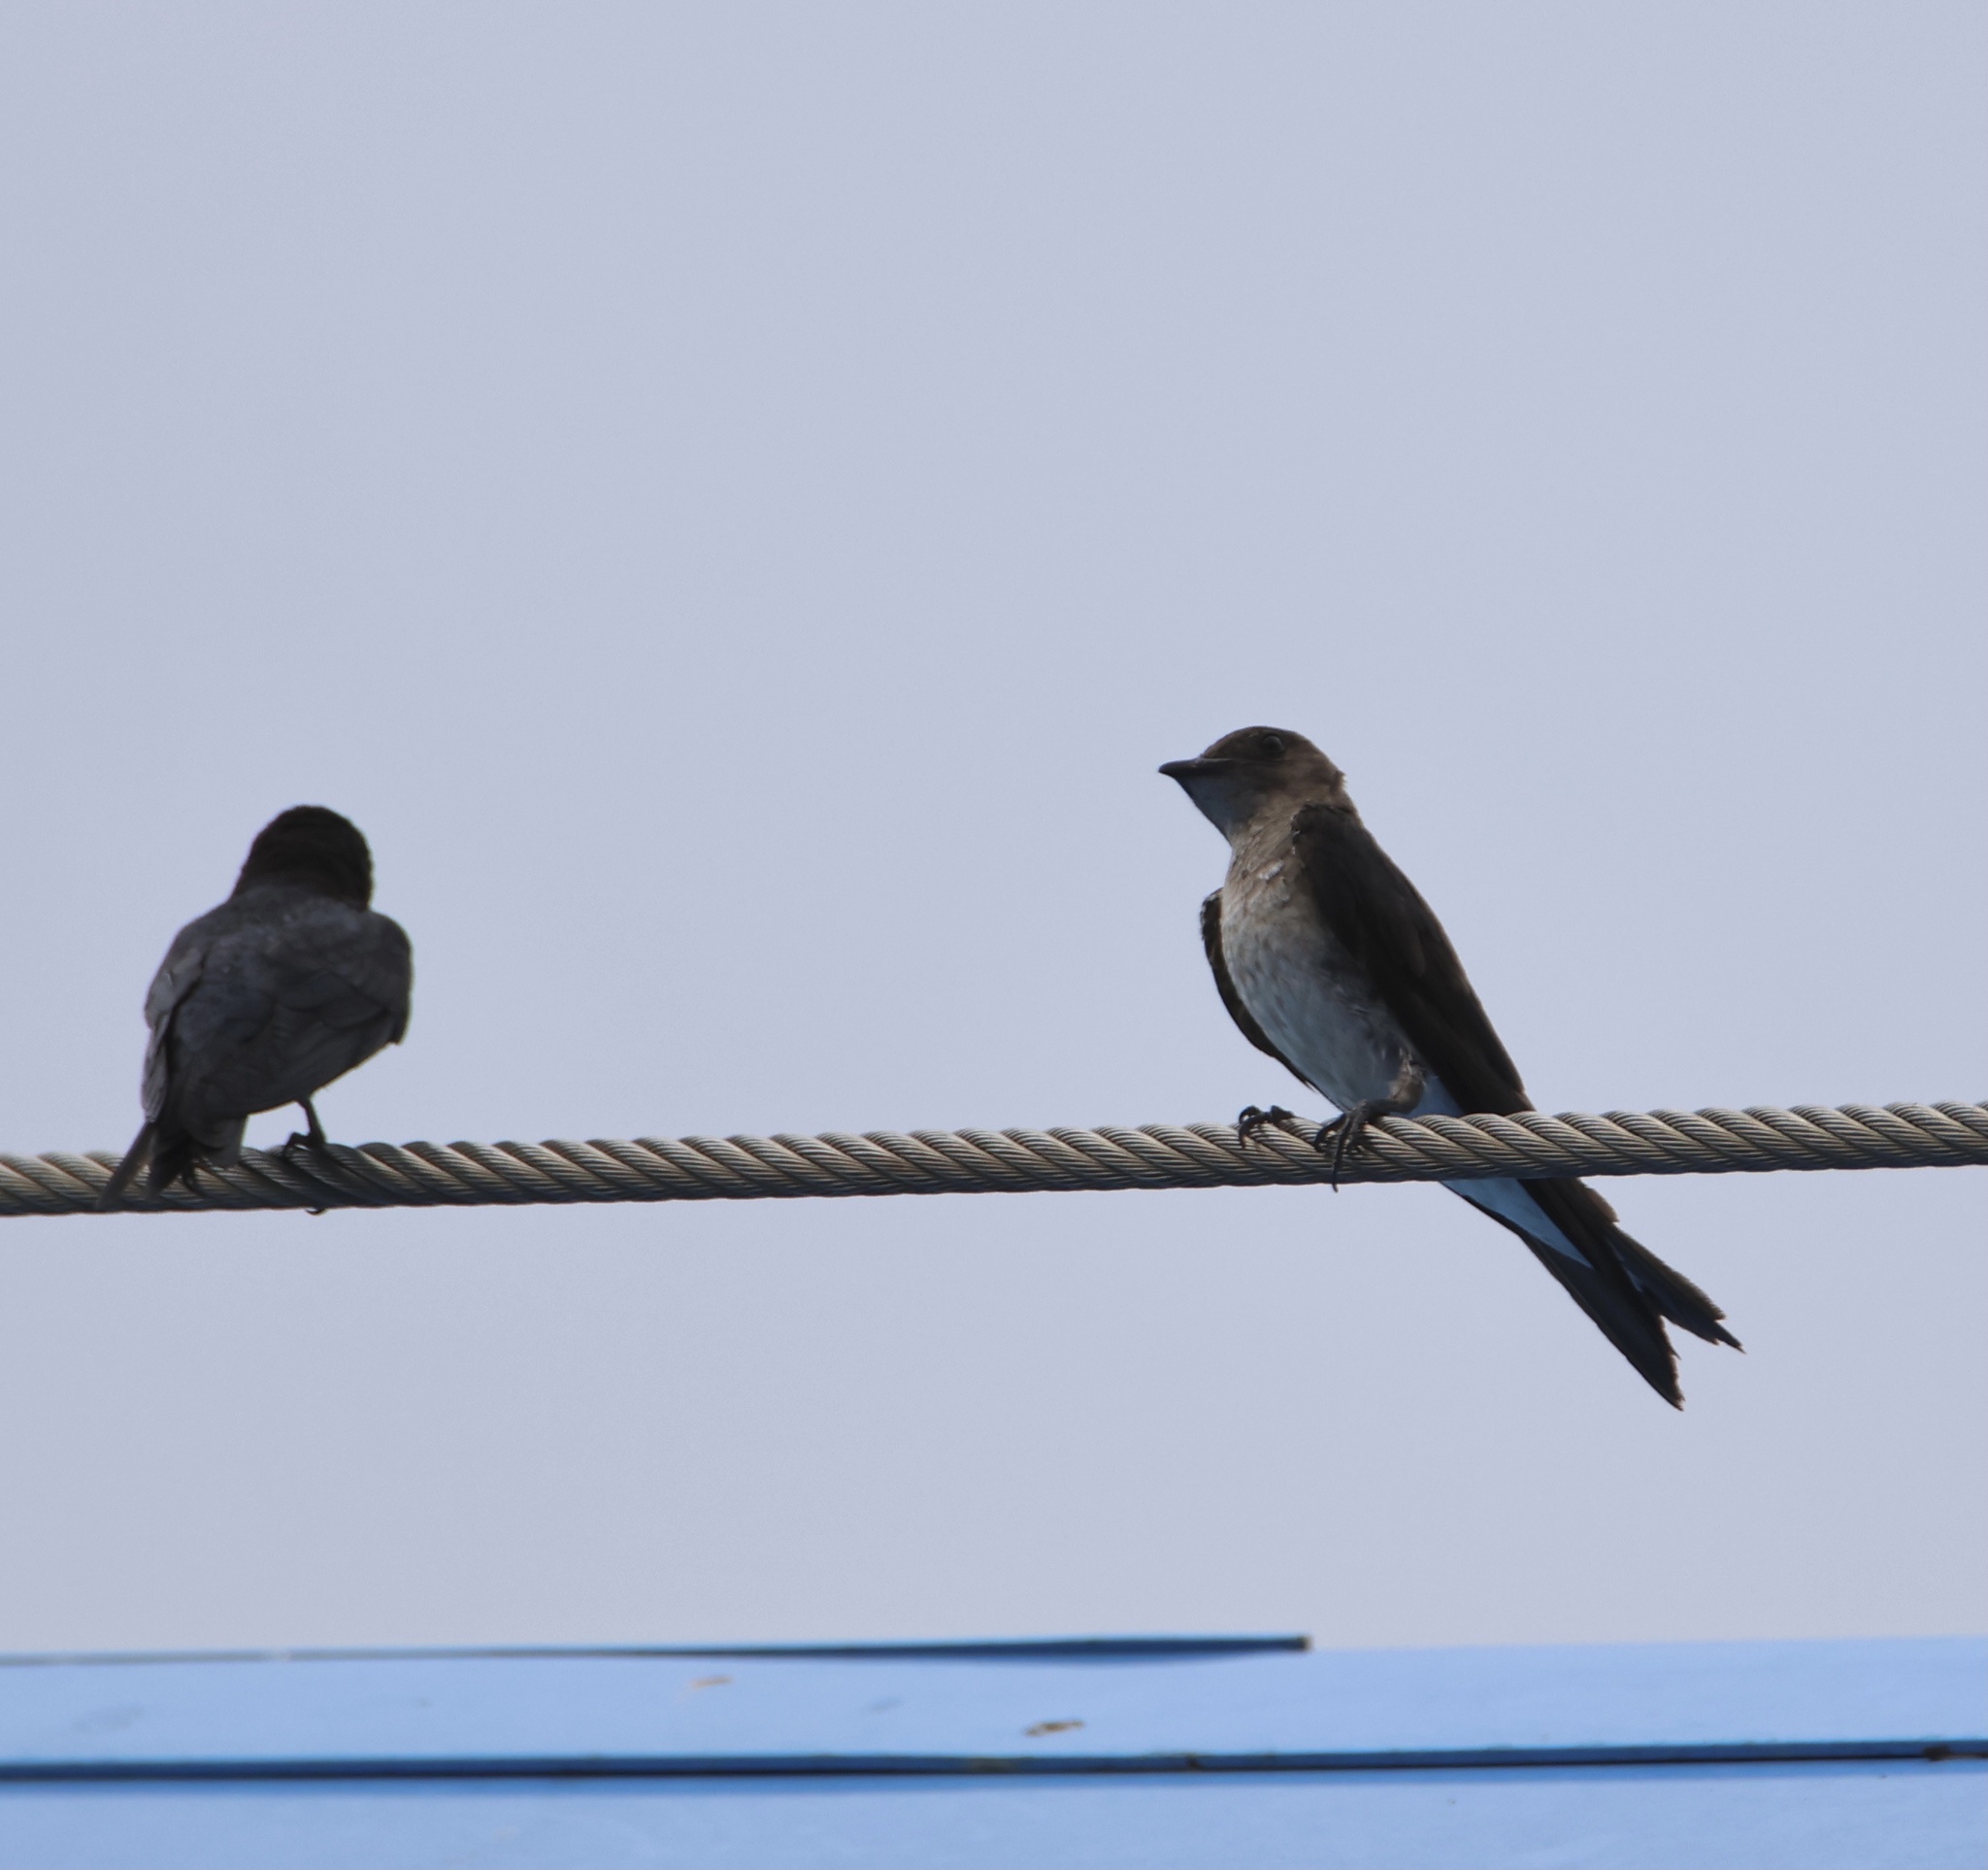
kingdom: Animalia
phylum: Chordata
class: Aves
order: Passeriformes
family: Hirundinidae
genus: Progne
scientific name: Progne chalybea
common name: Grey-breasted martin
